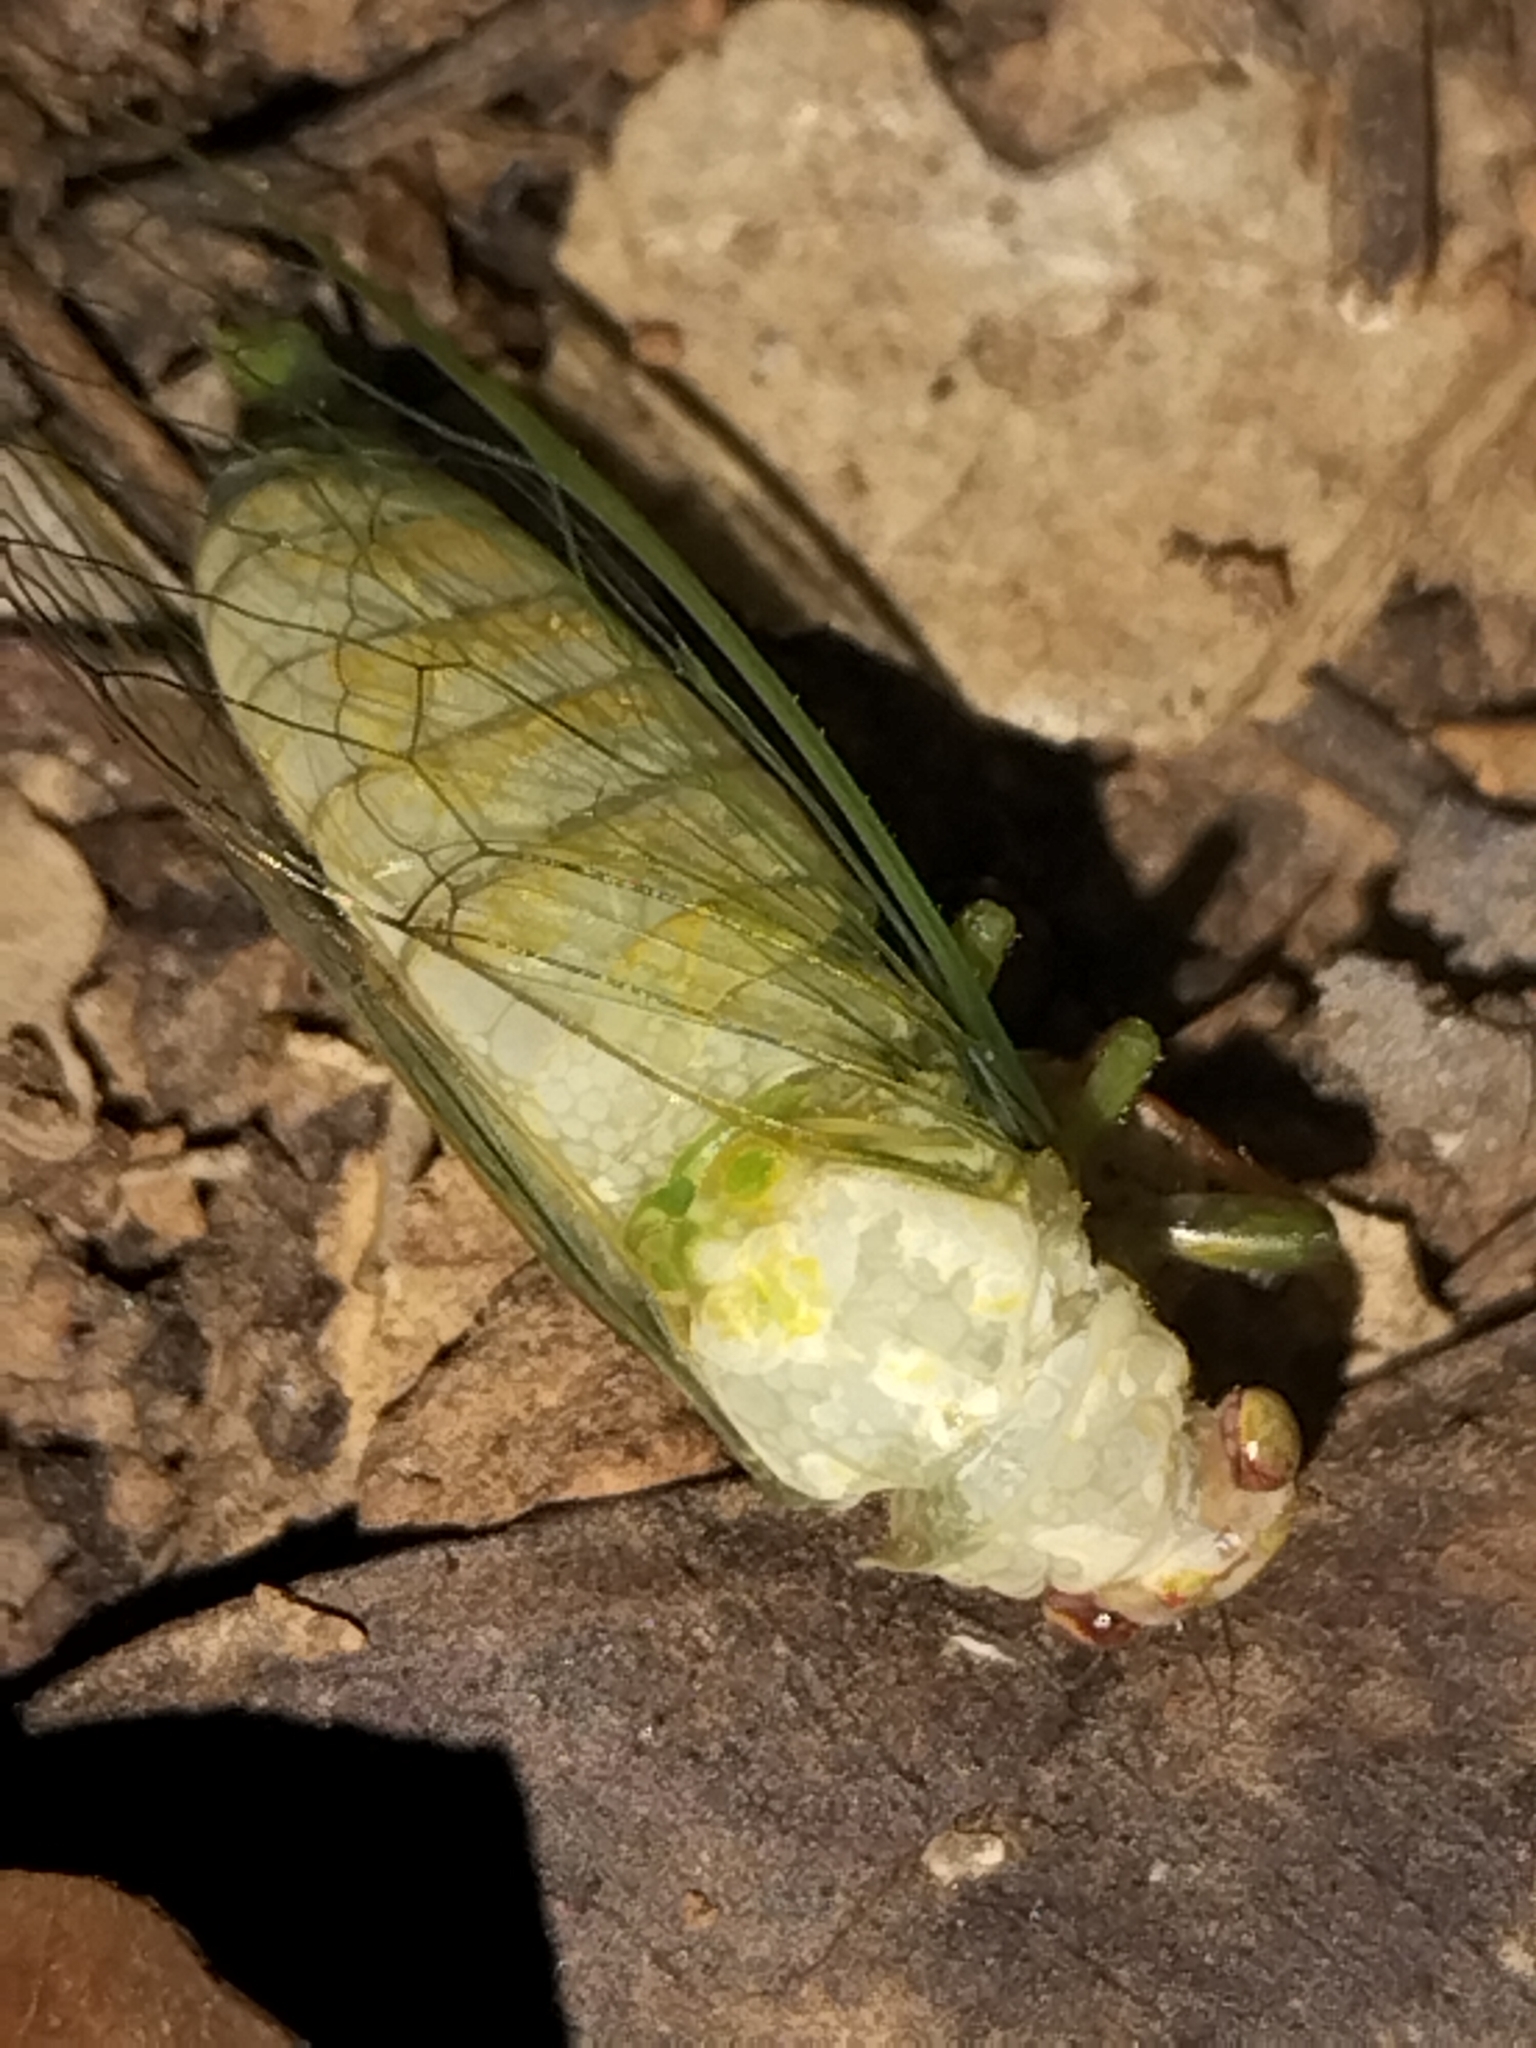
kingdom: Animalia
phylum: Arthropoda
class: Insecta
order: Hemiptera
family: Cicadidae
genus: Gymnotympana
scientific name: Gymnotympana varicolor
